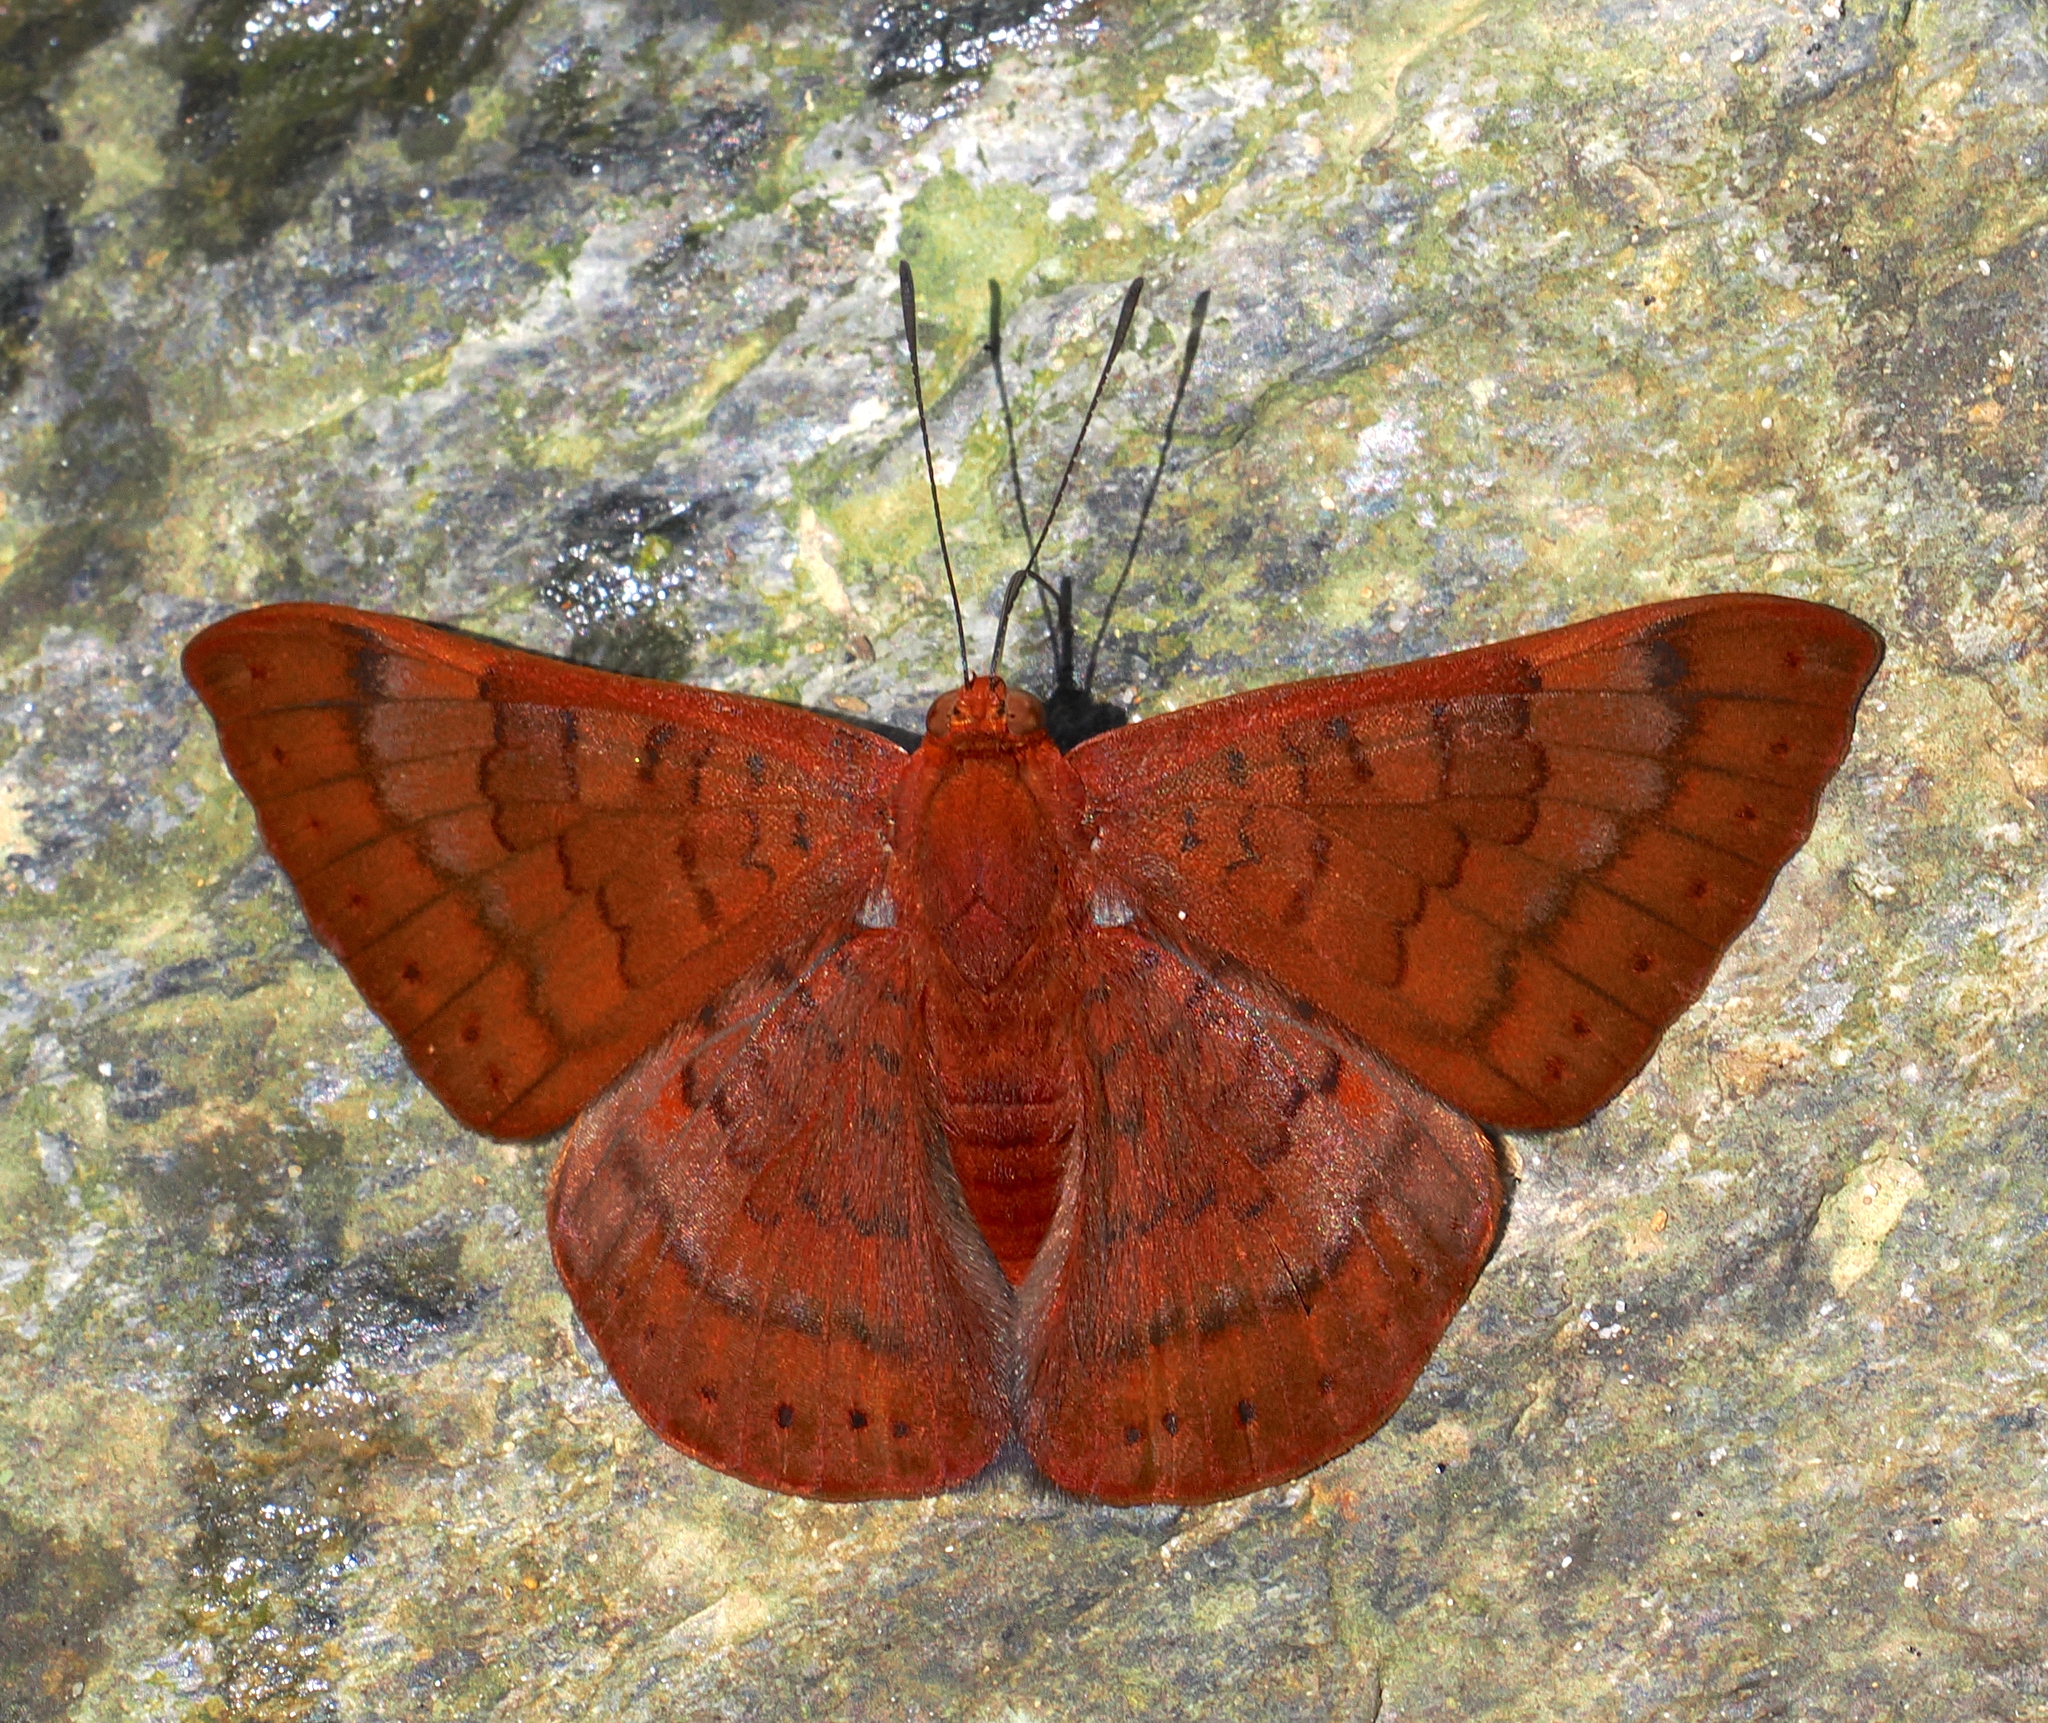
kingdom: Animalia
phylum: Arthropoda
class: Insecta
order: Lepidoptera
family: Lycaenidae
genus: Emesis
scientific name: Emesis mandana
